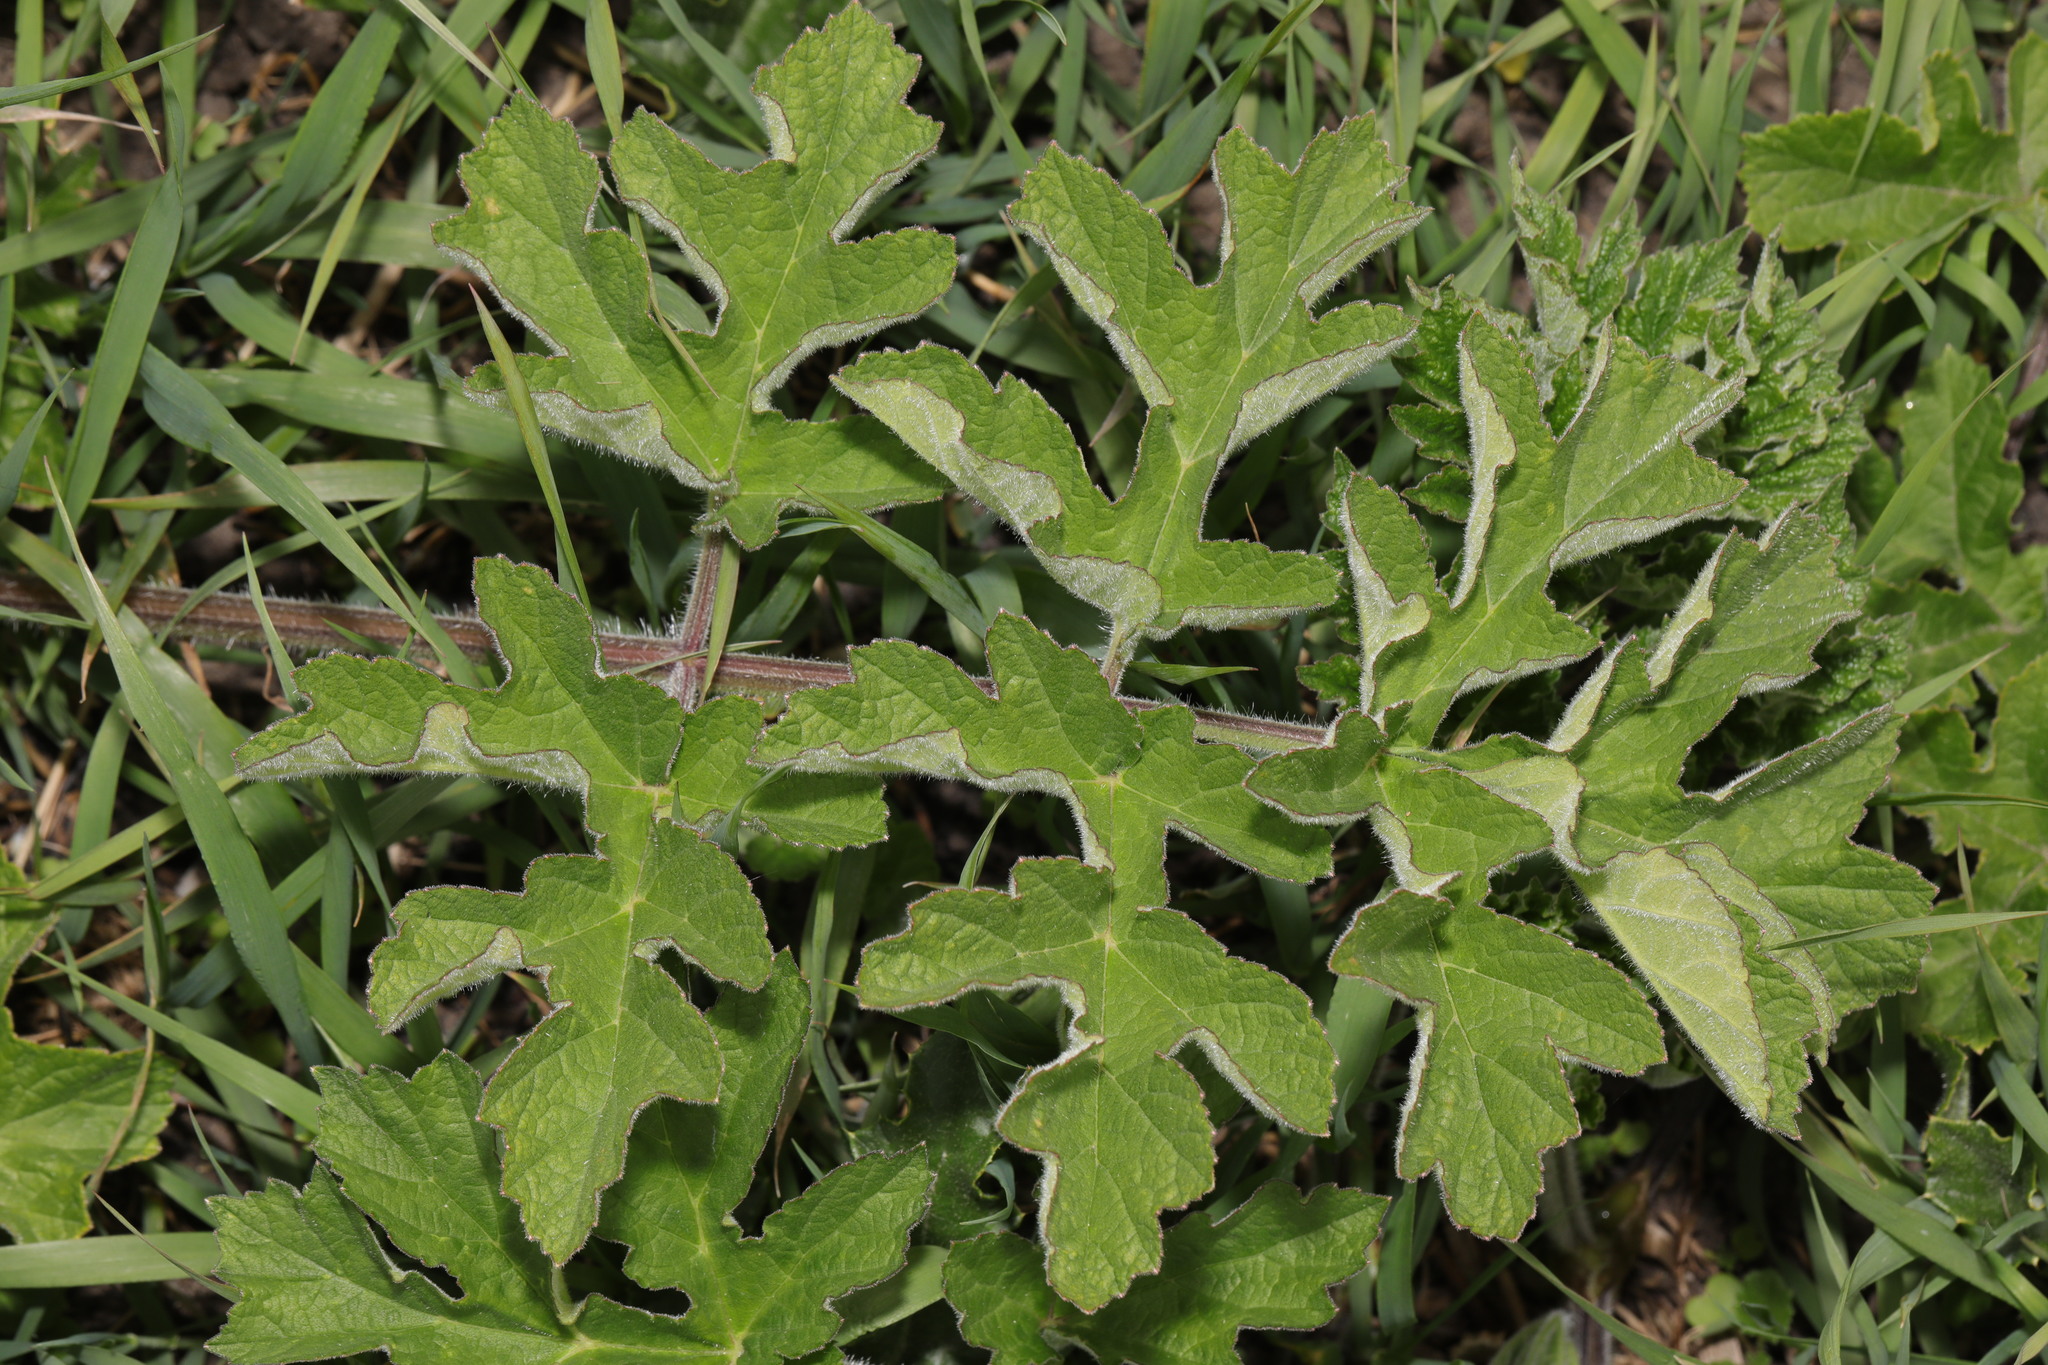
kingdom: Plantae
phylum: Tracheophyta
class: Magnoliopsida
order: Apiales
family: Apiaceae
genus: Heracleum
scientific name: Heracleum sphondylium
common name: Hogweed
